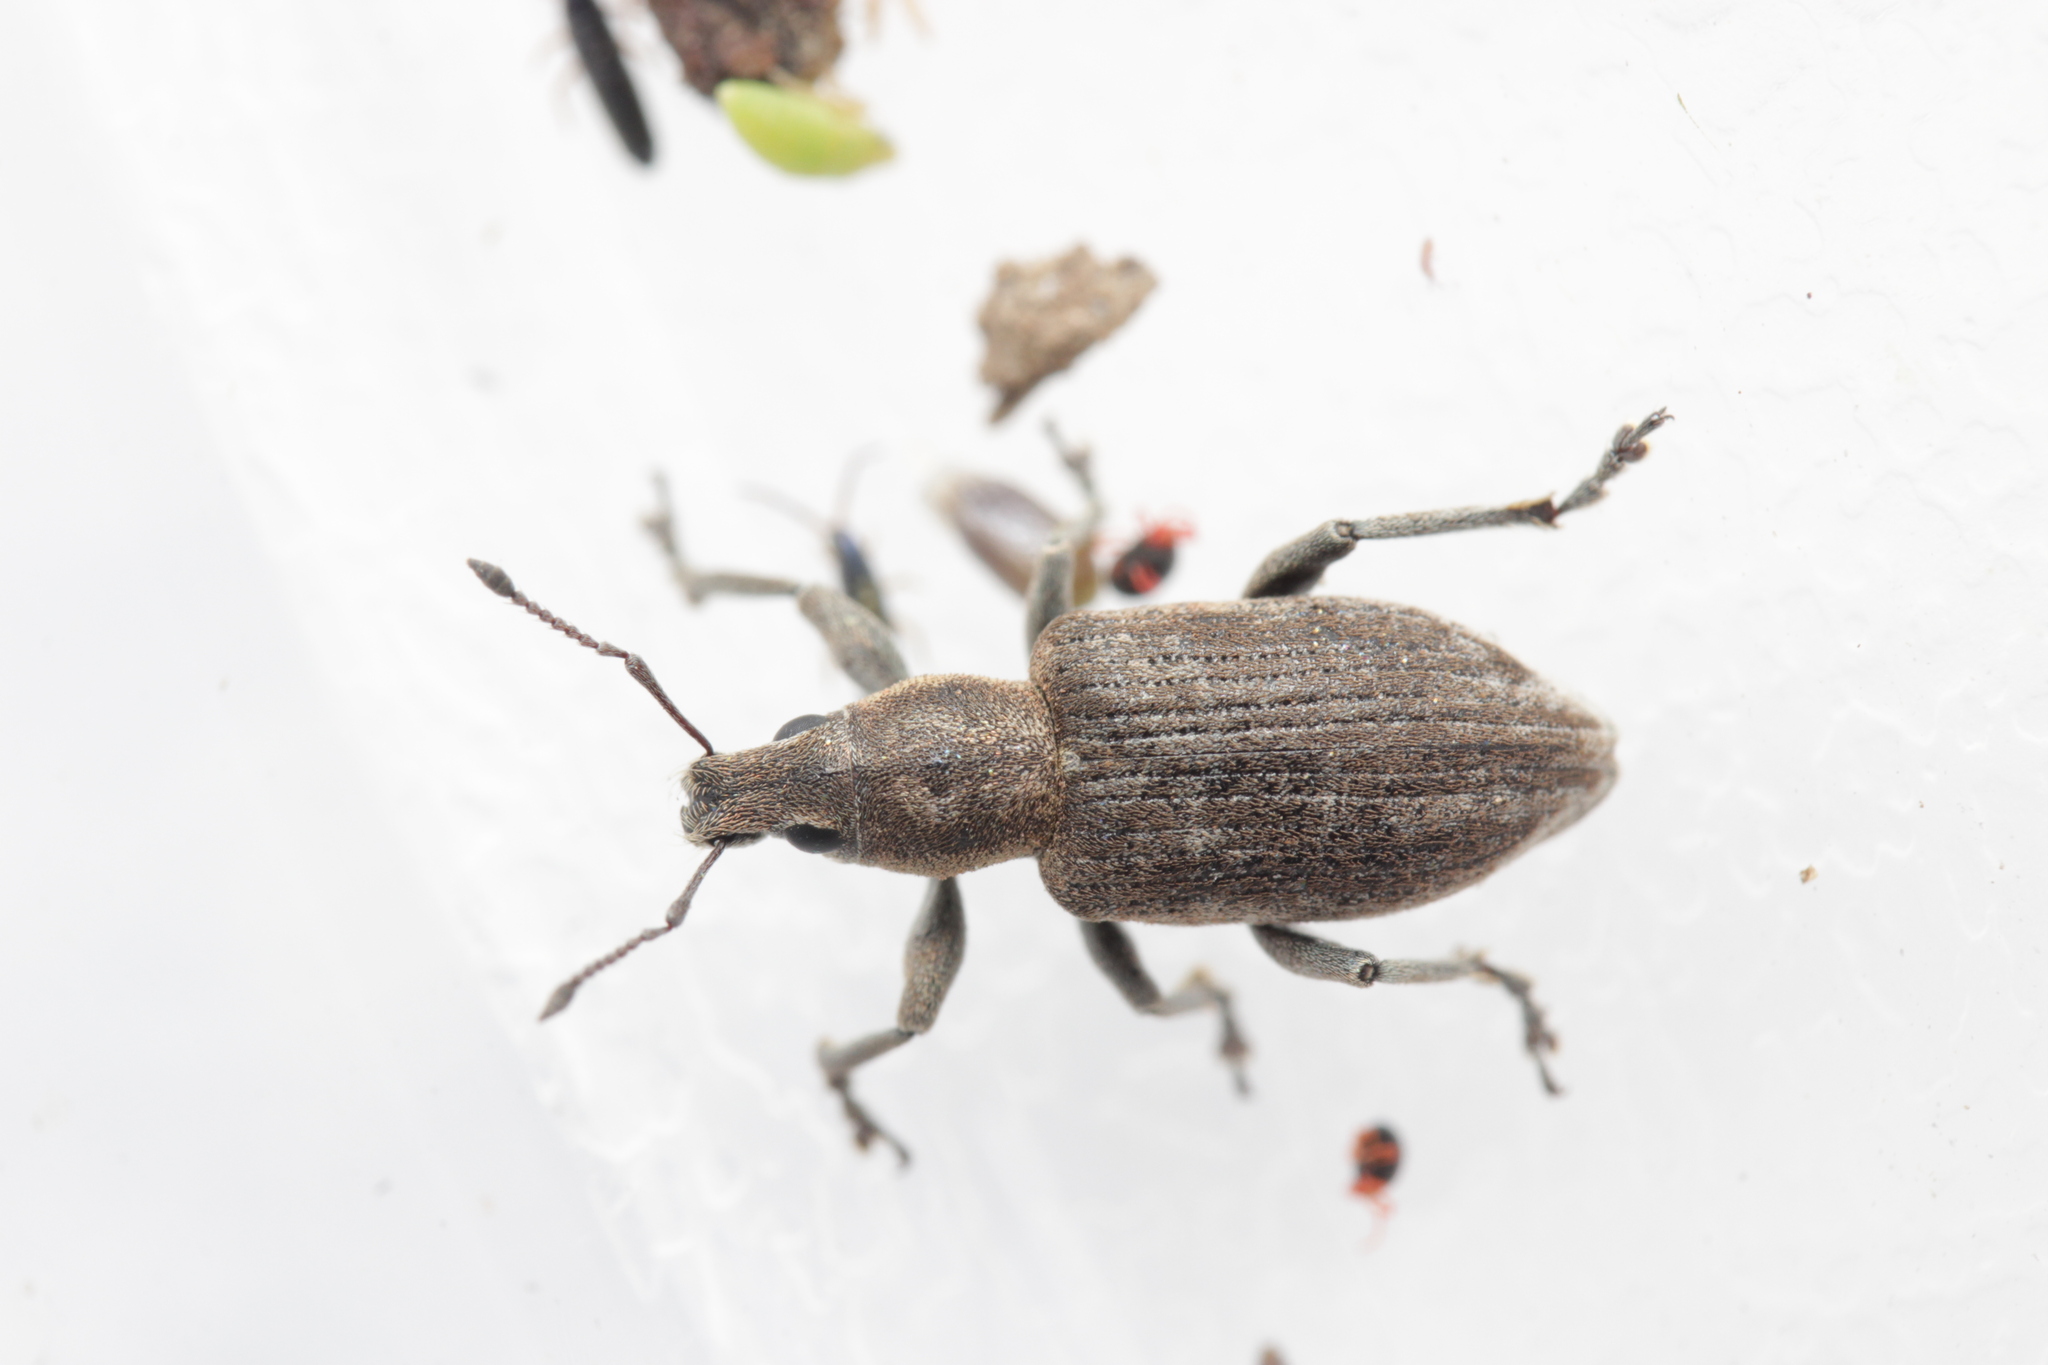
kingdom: Animalia
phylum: Arthropoda
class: Insecta
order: Coleoptera
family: Curculionidae
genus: Tanymecus
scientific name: Tanymecus palliatus
